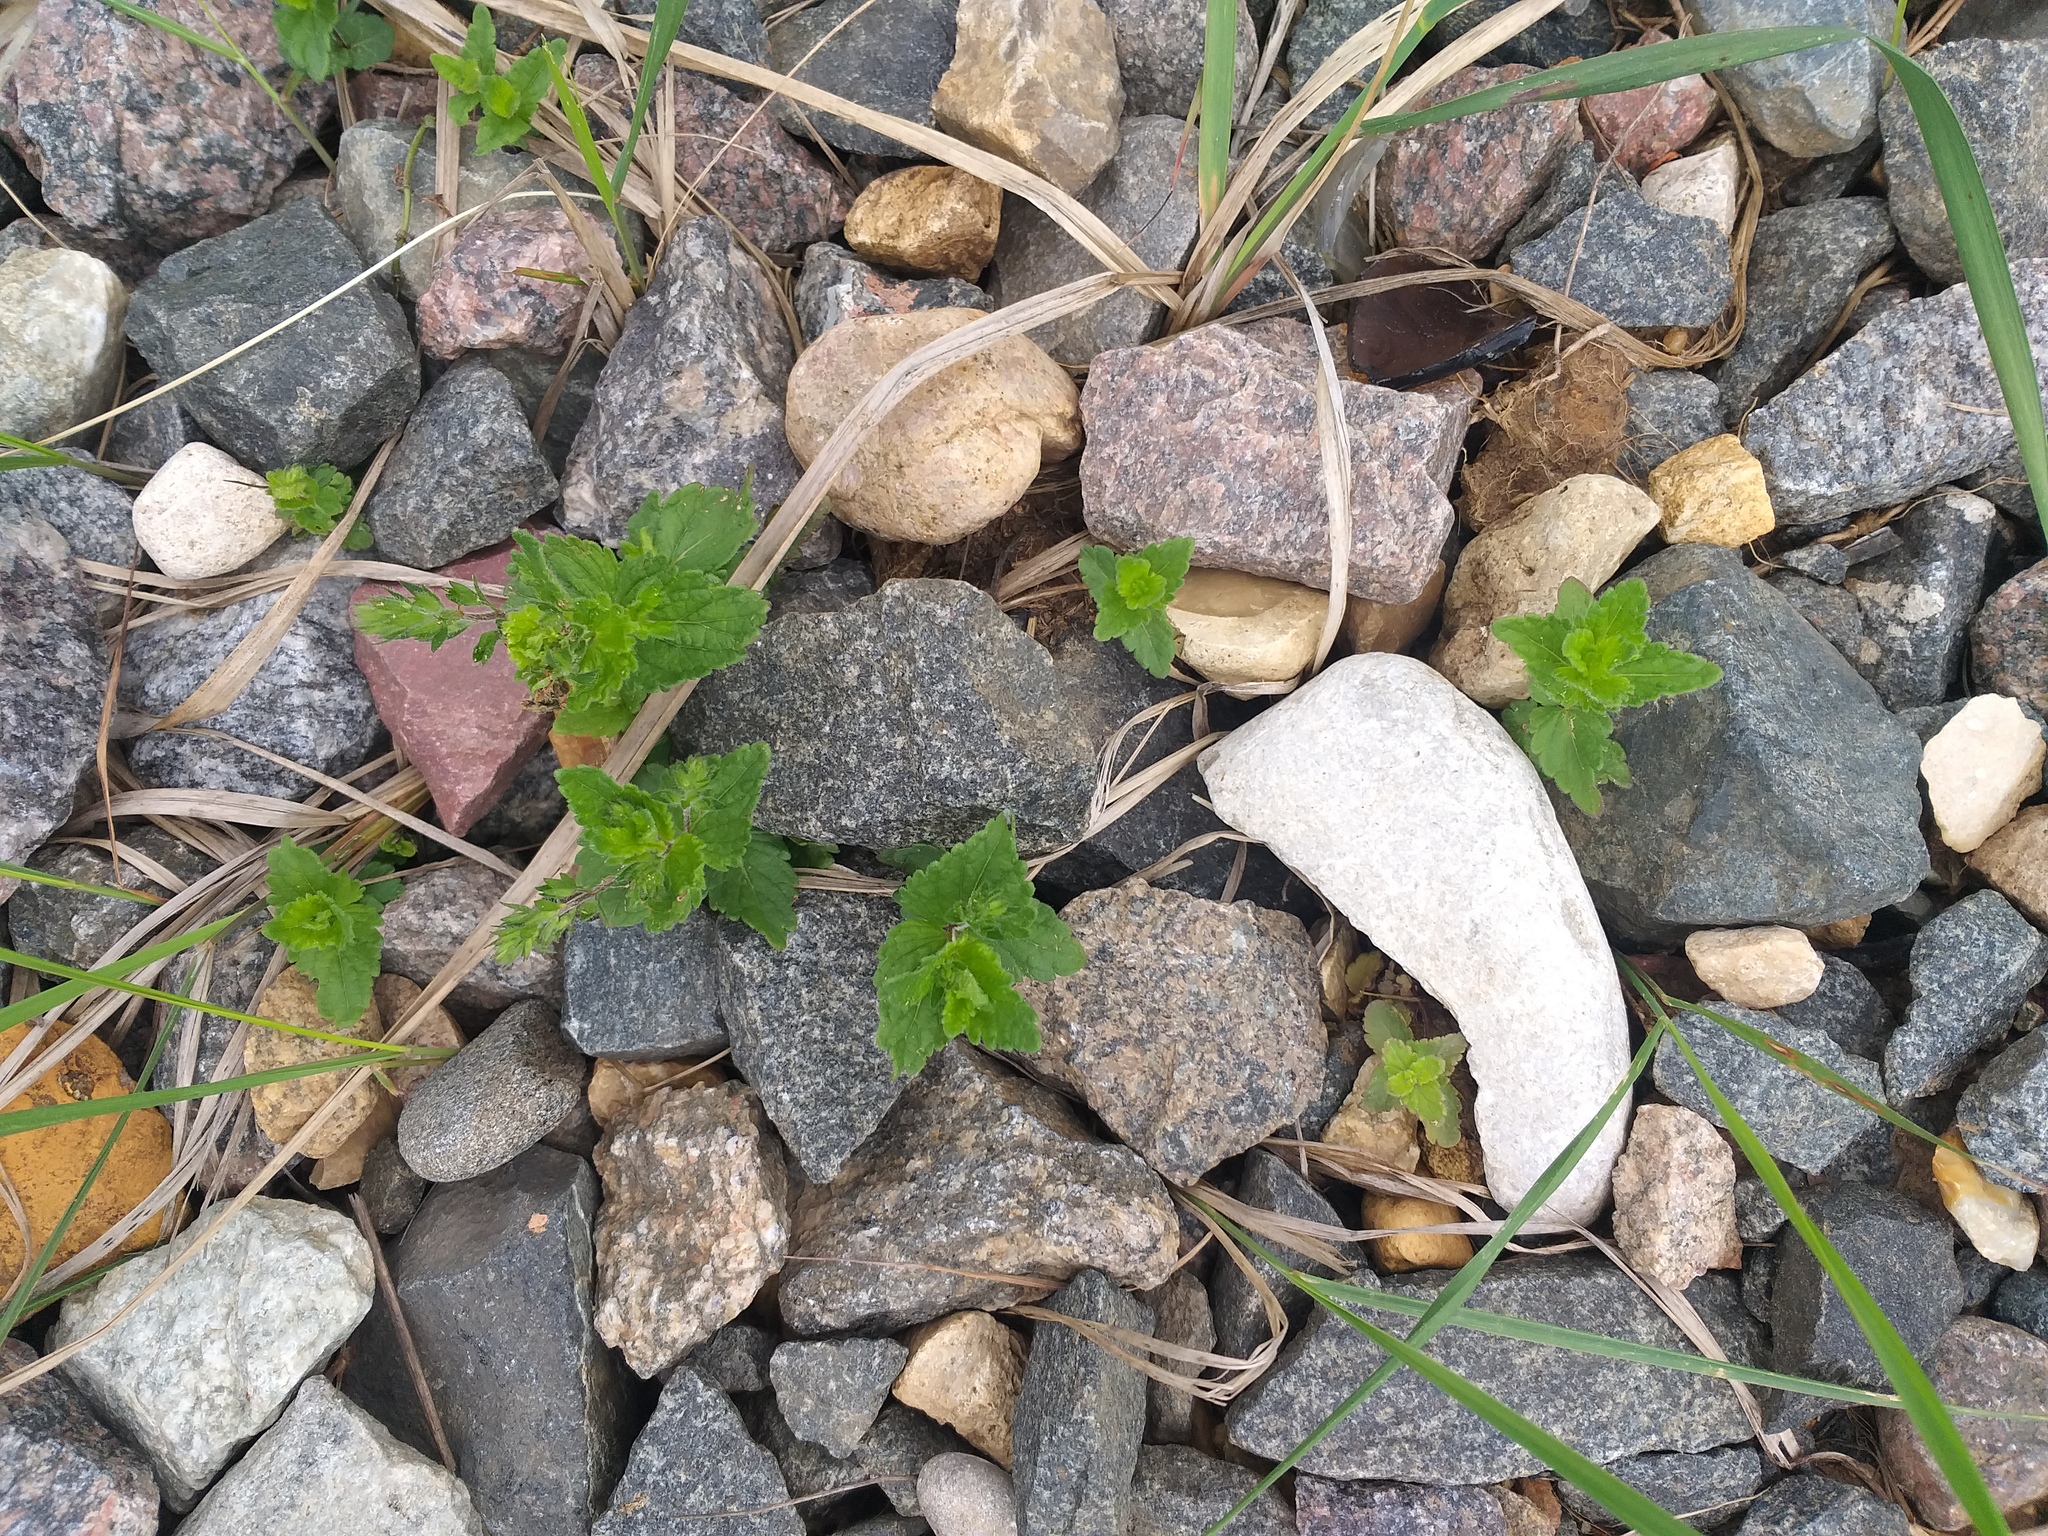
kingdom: Plantae
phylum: Tracheophyta
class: Magnoliopsida
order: Lamiales
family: Plantaginaceae
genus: Veronica
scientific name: Veronica chamaedrys
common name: Germander speedwell
